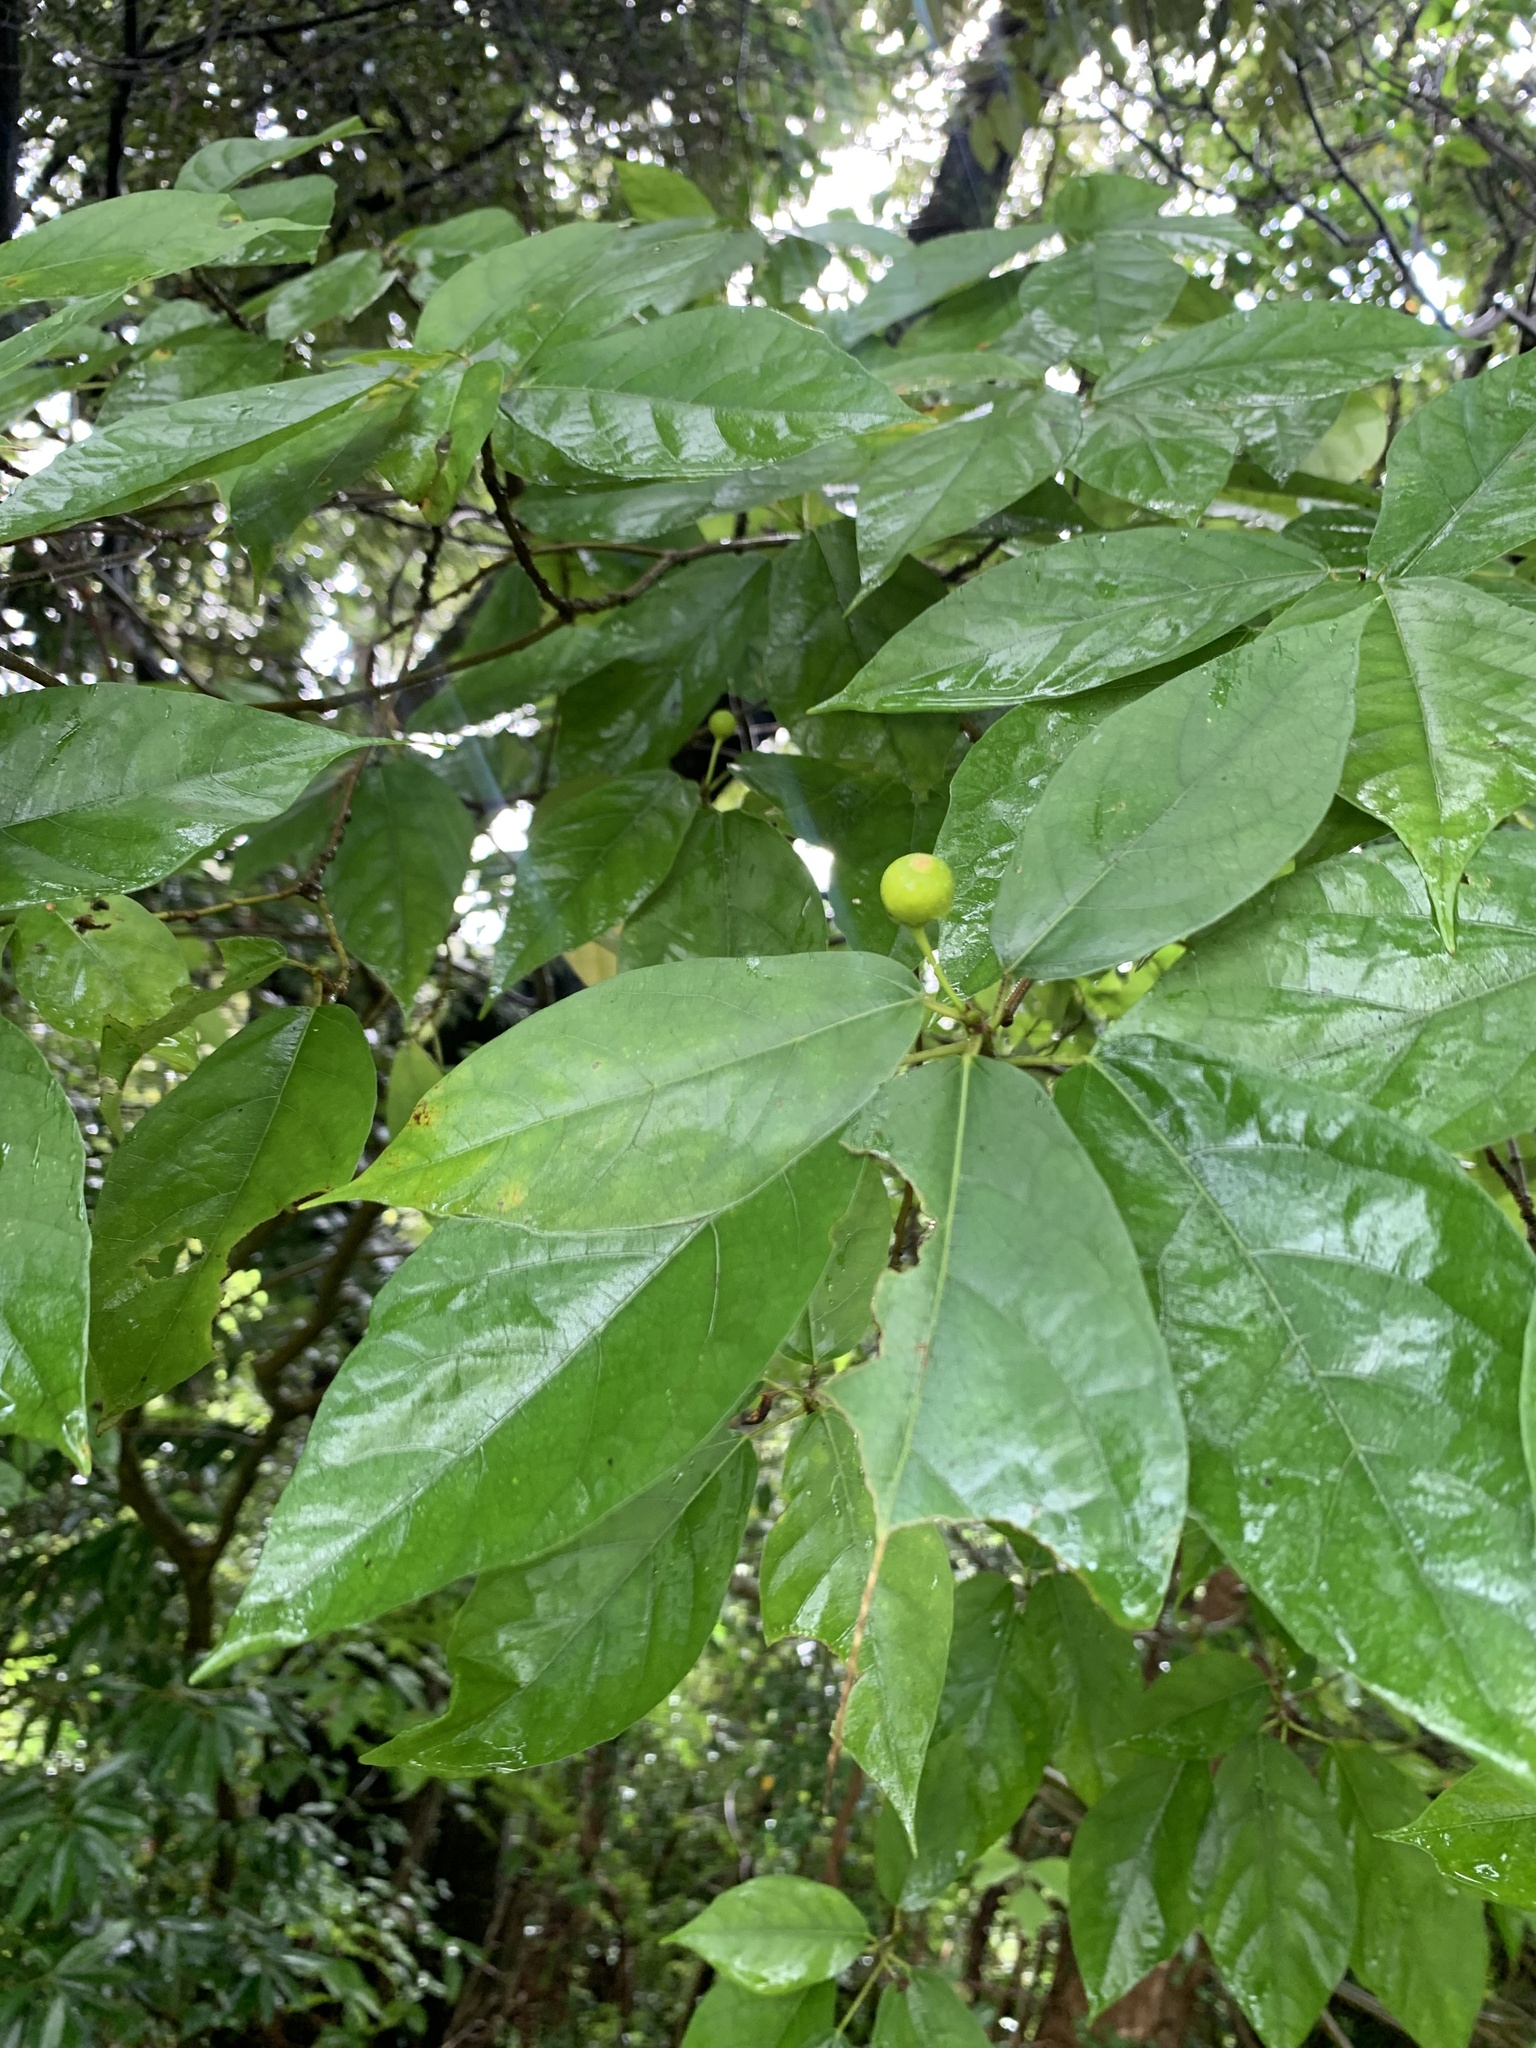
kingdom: Plantae
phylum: Tracheophyta
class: Magnoliopsida
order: Rosales
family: Moraceae
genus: Ficus
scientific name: Ficus erecta
